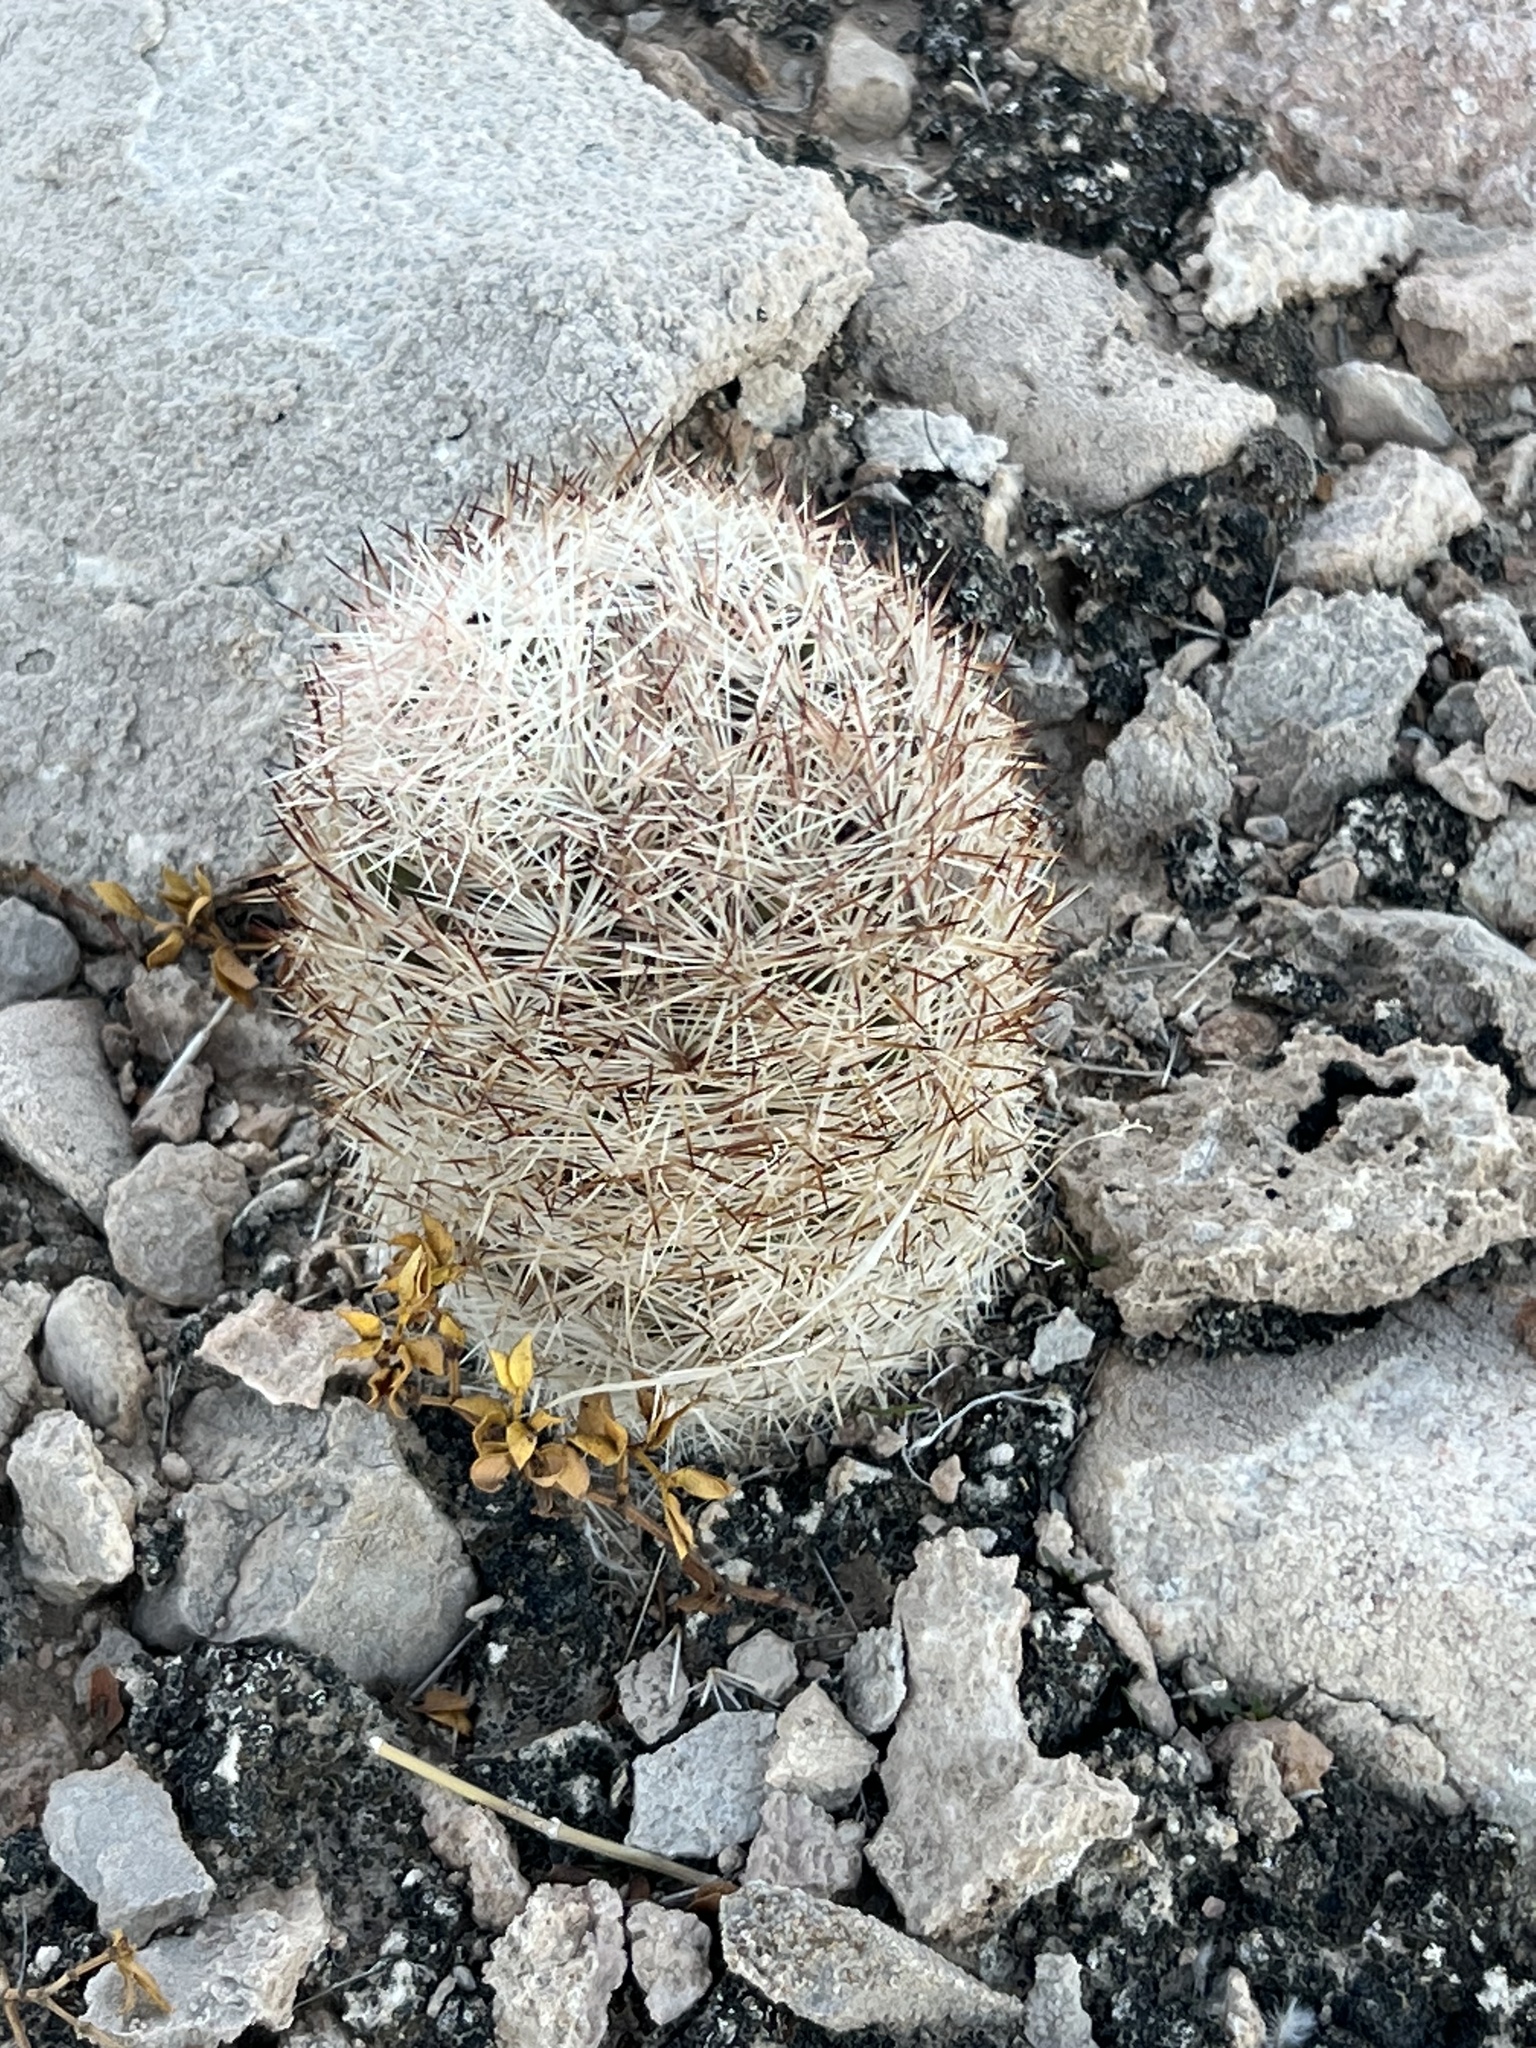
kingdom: Plantae
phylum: Tracheophyta
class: Magnoliopsida
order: Caryophyllales
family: Cactaceae
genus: Pelecyphora
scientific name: Pelecyphora dasyacantha
